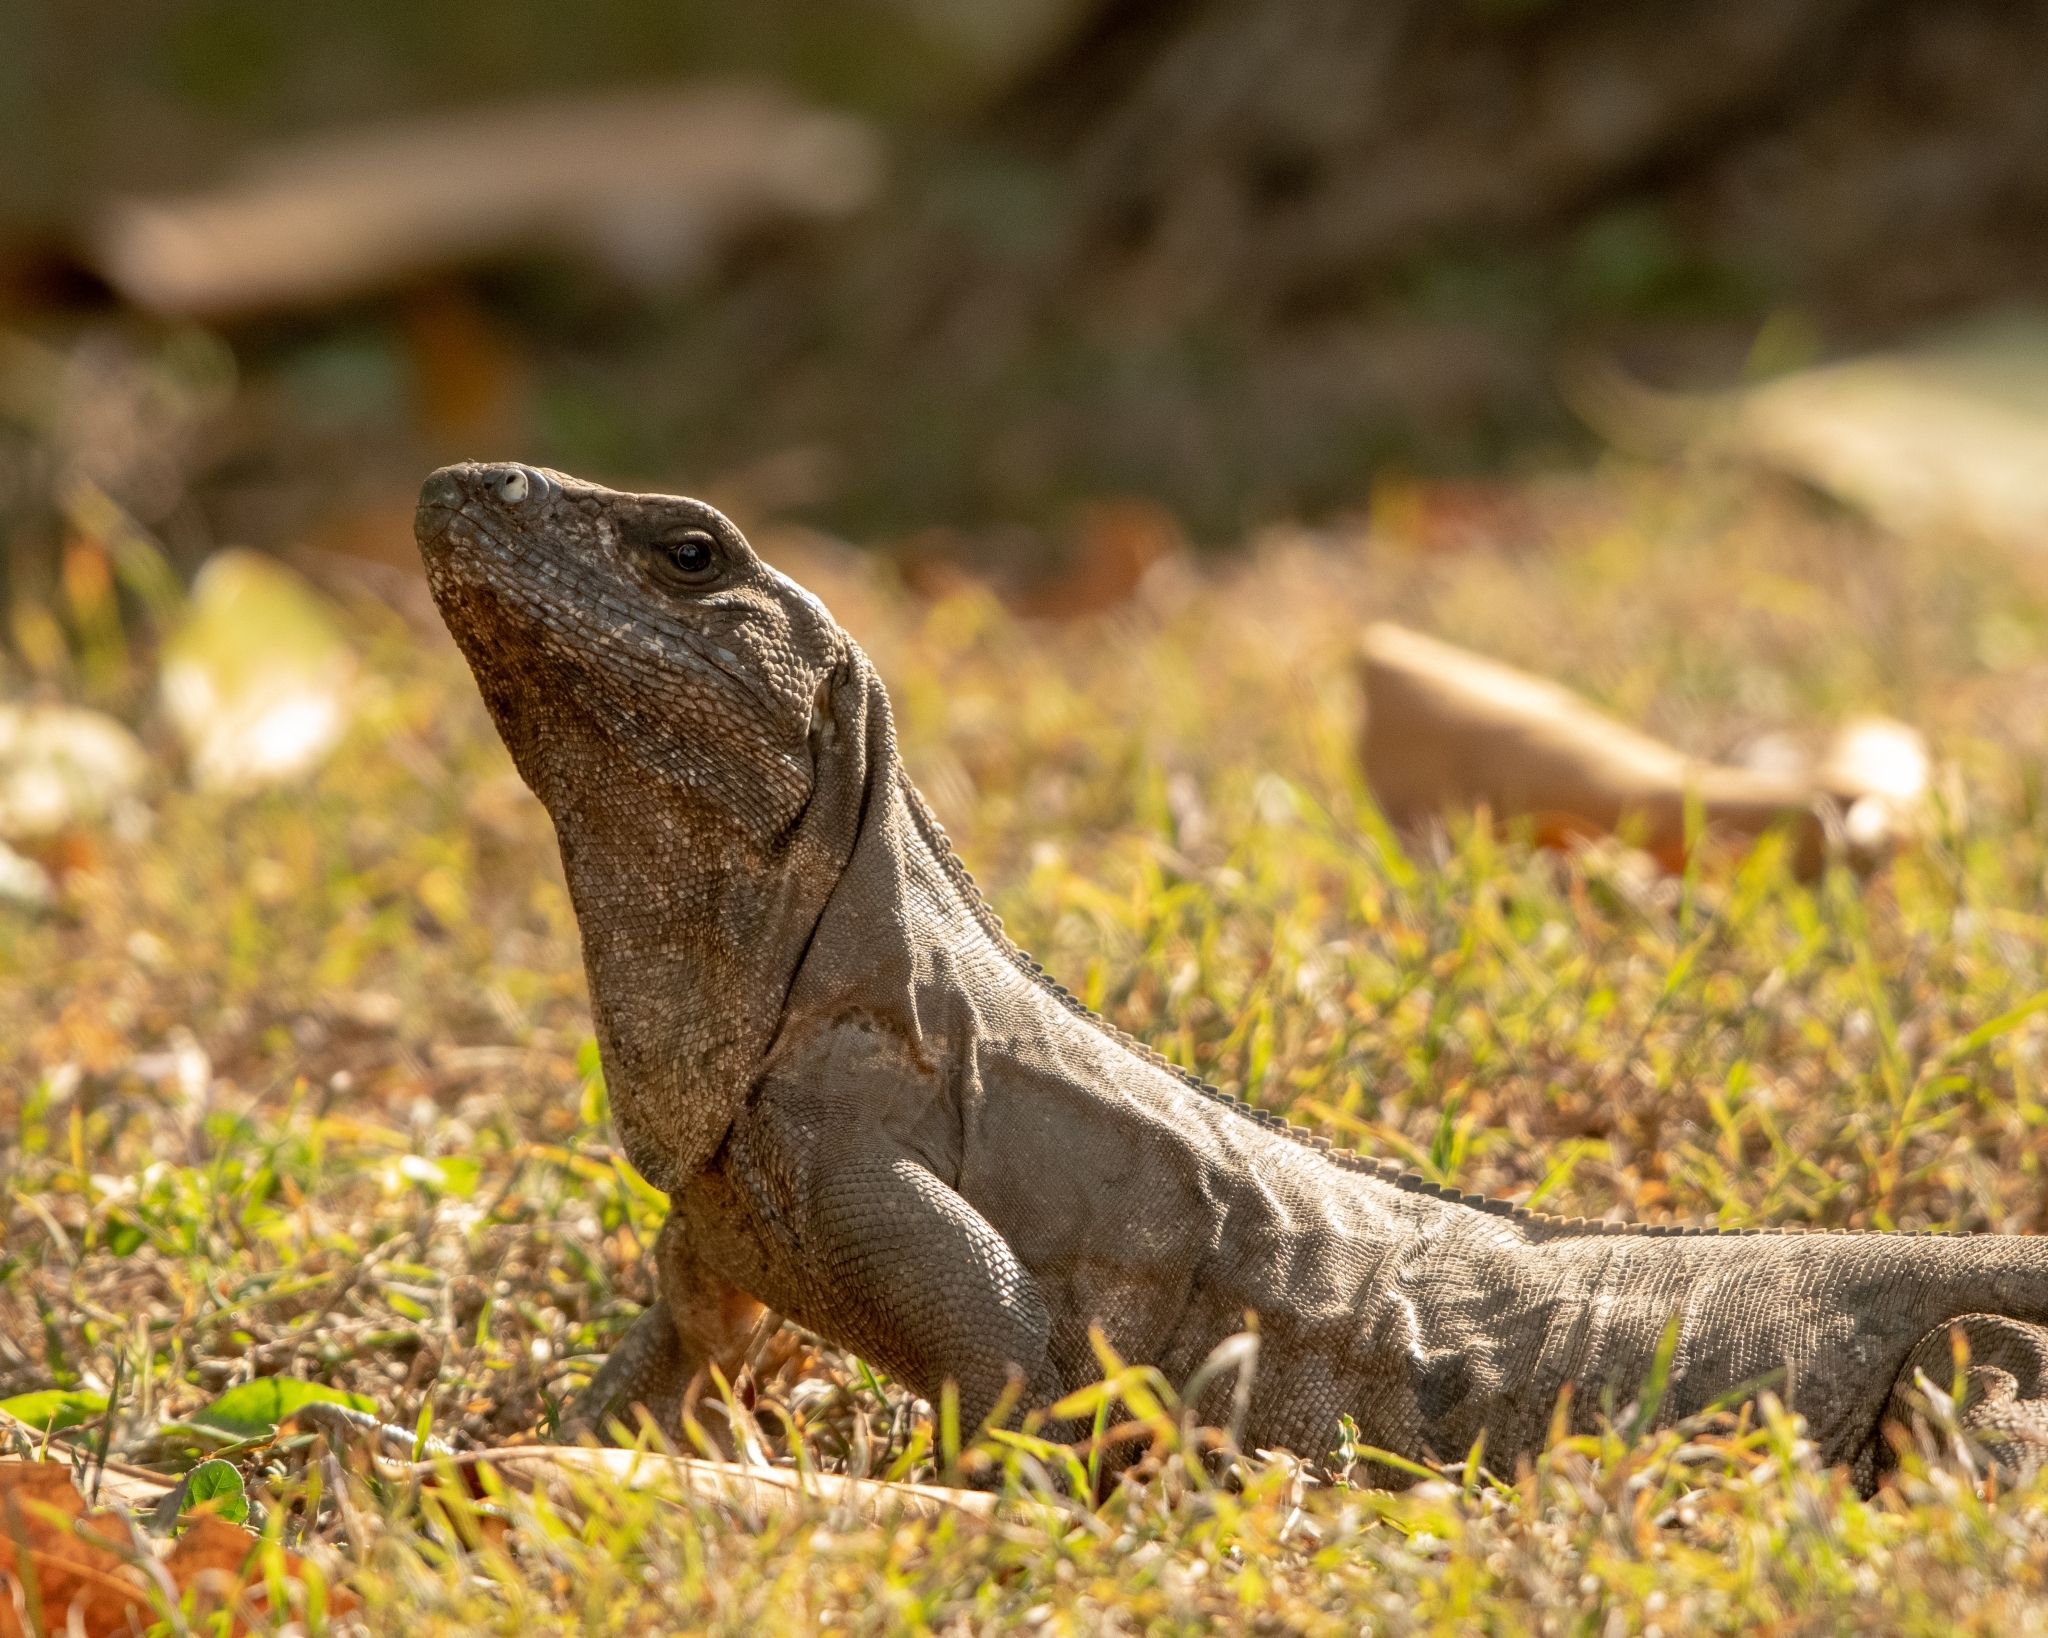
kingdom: Animalia
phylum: Chordata
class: Squamata
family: Iguanidae
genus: Ctenosaura
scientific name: Ctenosaura similis
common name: Black spiny-tailed iguana
